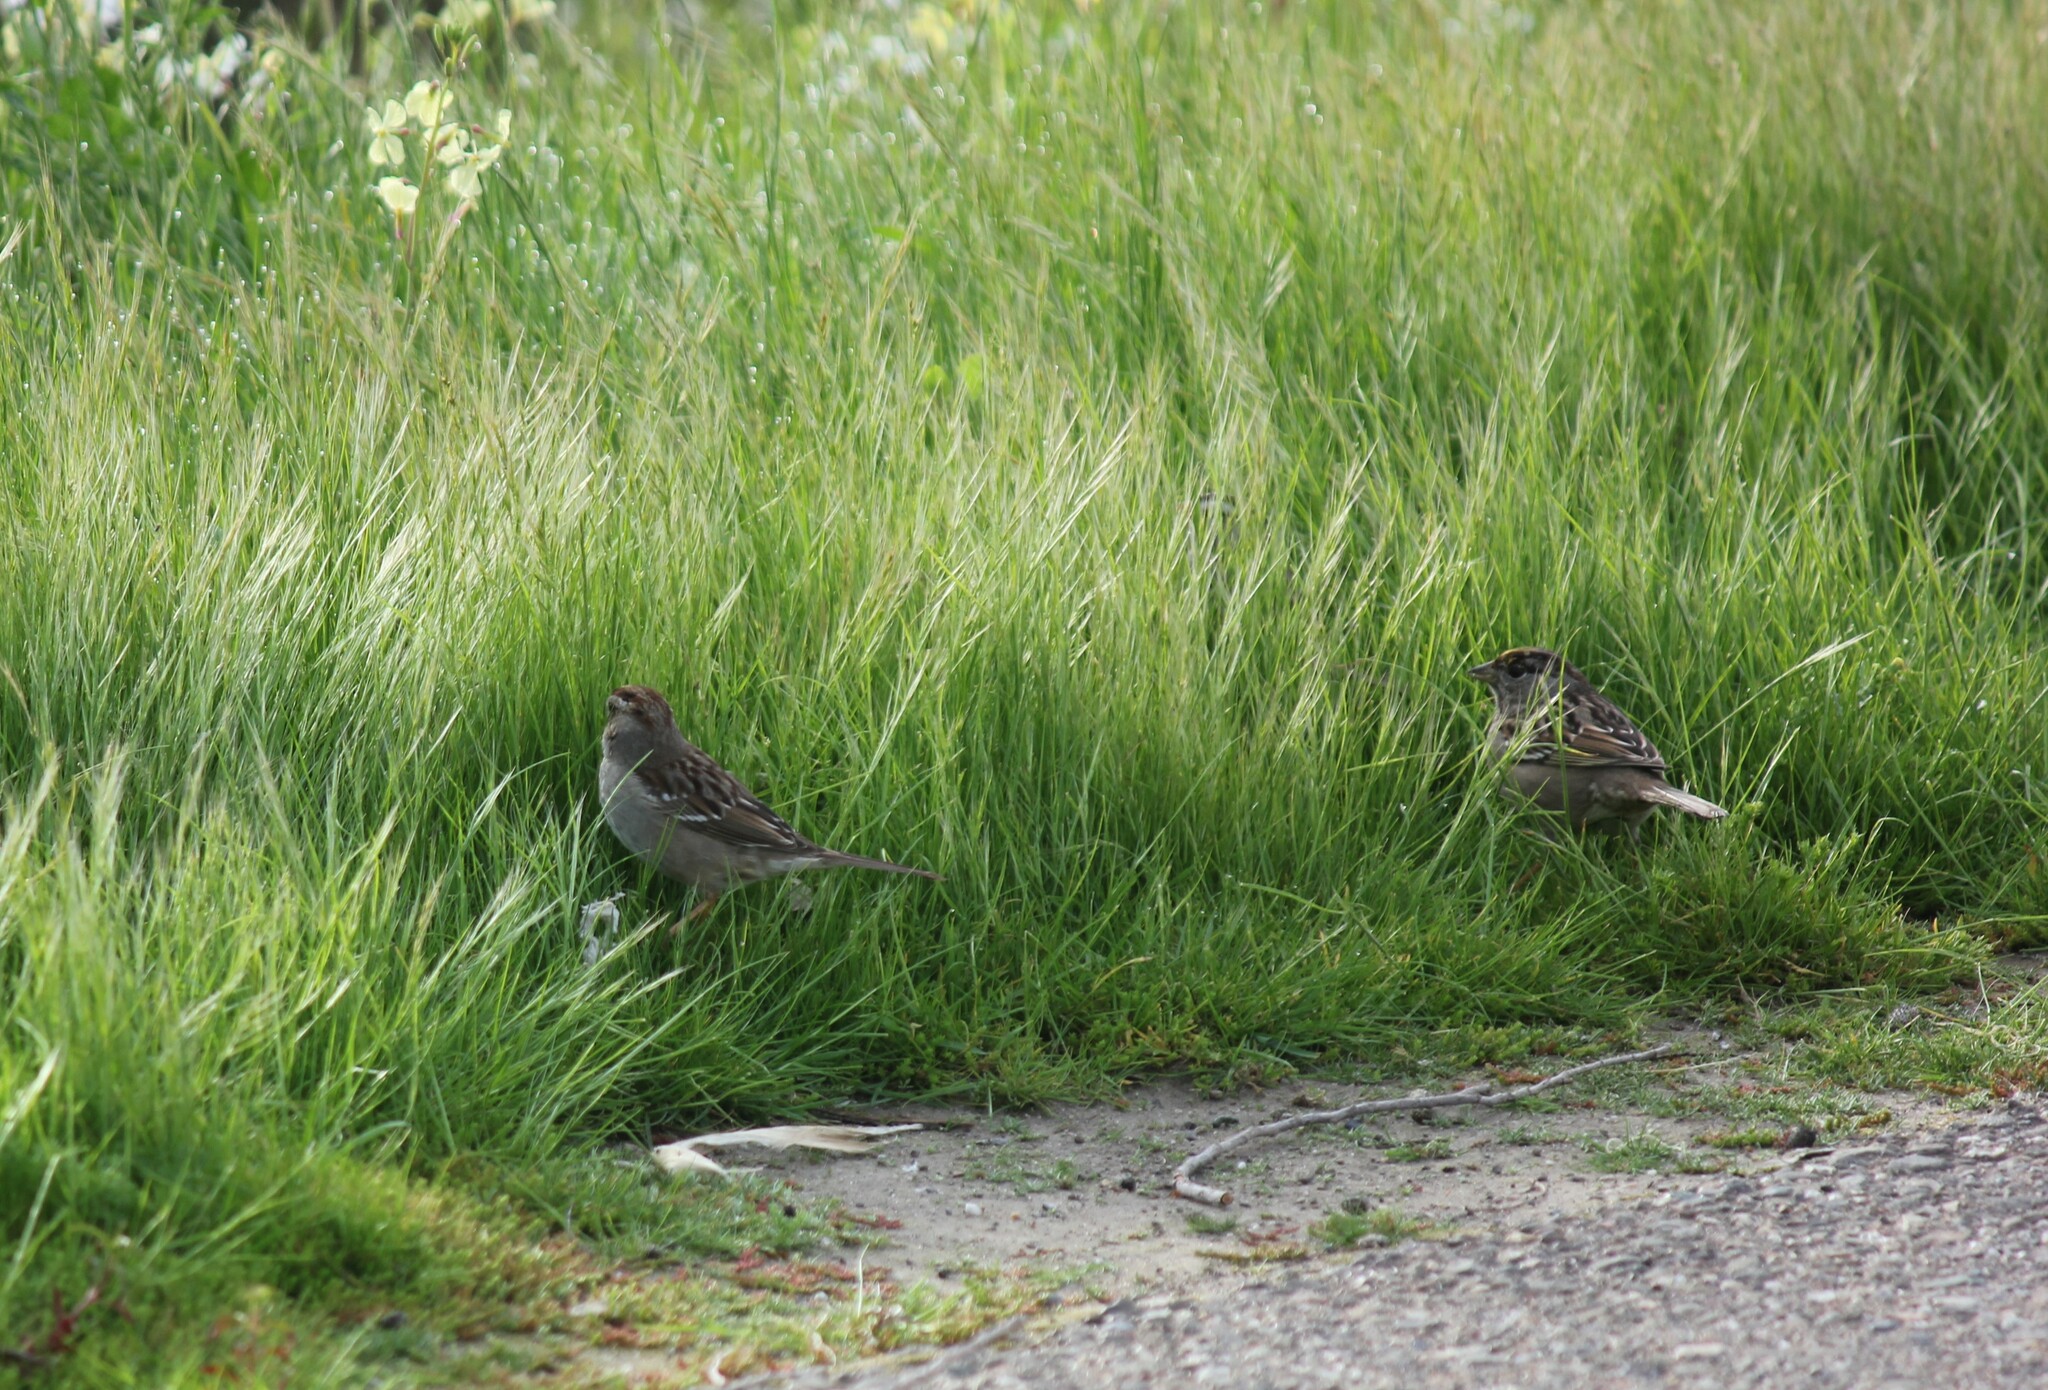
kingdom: Animalia
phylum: Chordata
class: Aves
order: Passeriformes
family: Passerellidae
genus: Zonotrichia
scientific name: Zonotrichia atricapilla
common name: Golden-crowned sparrow
